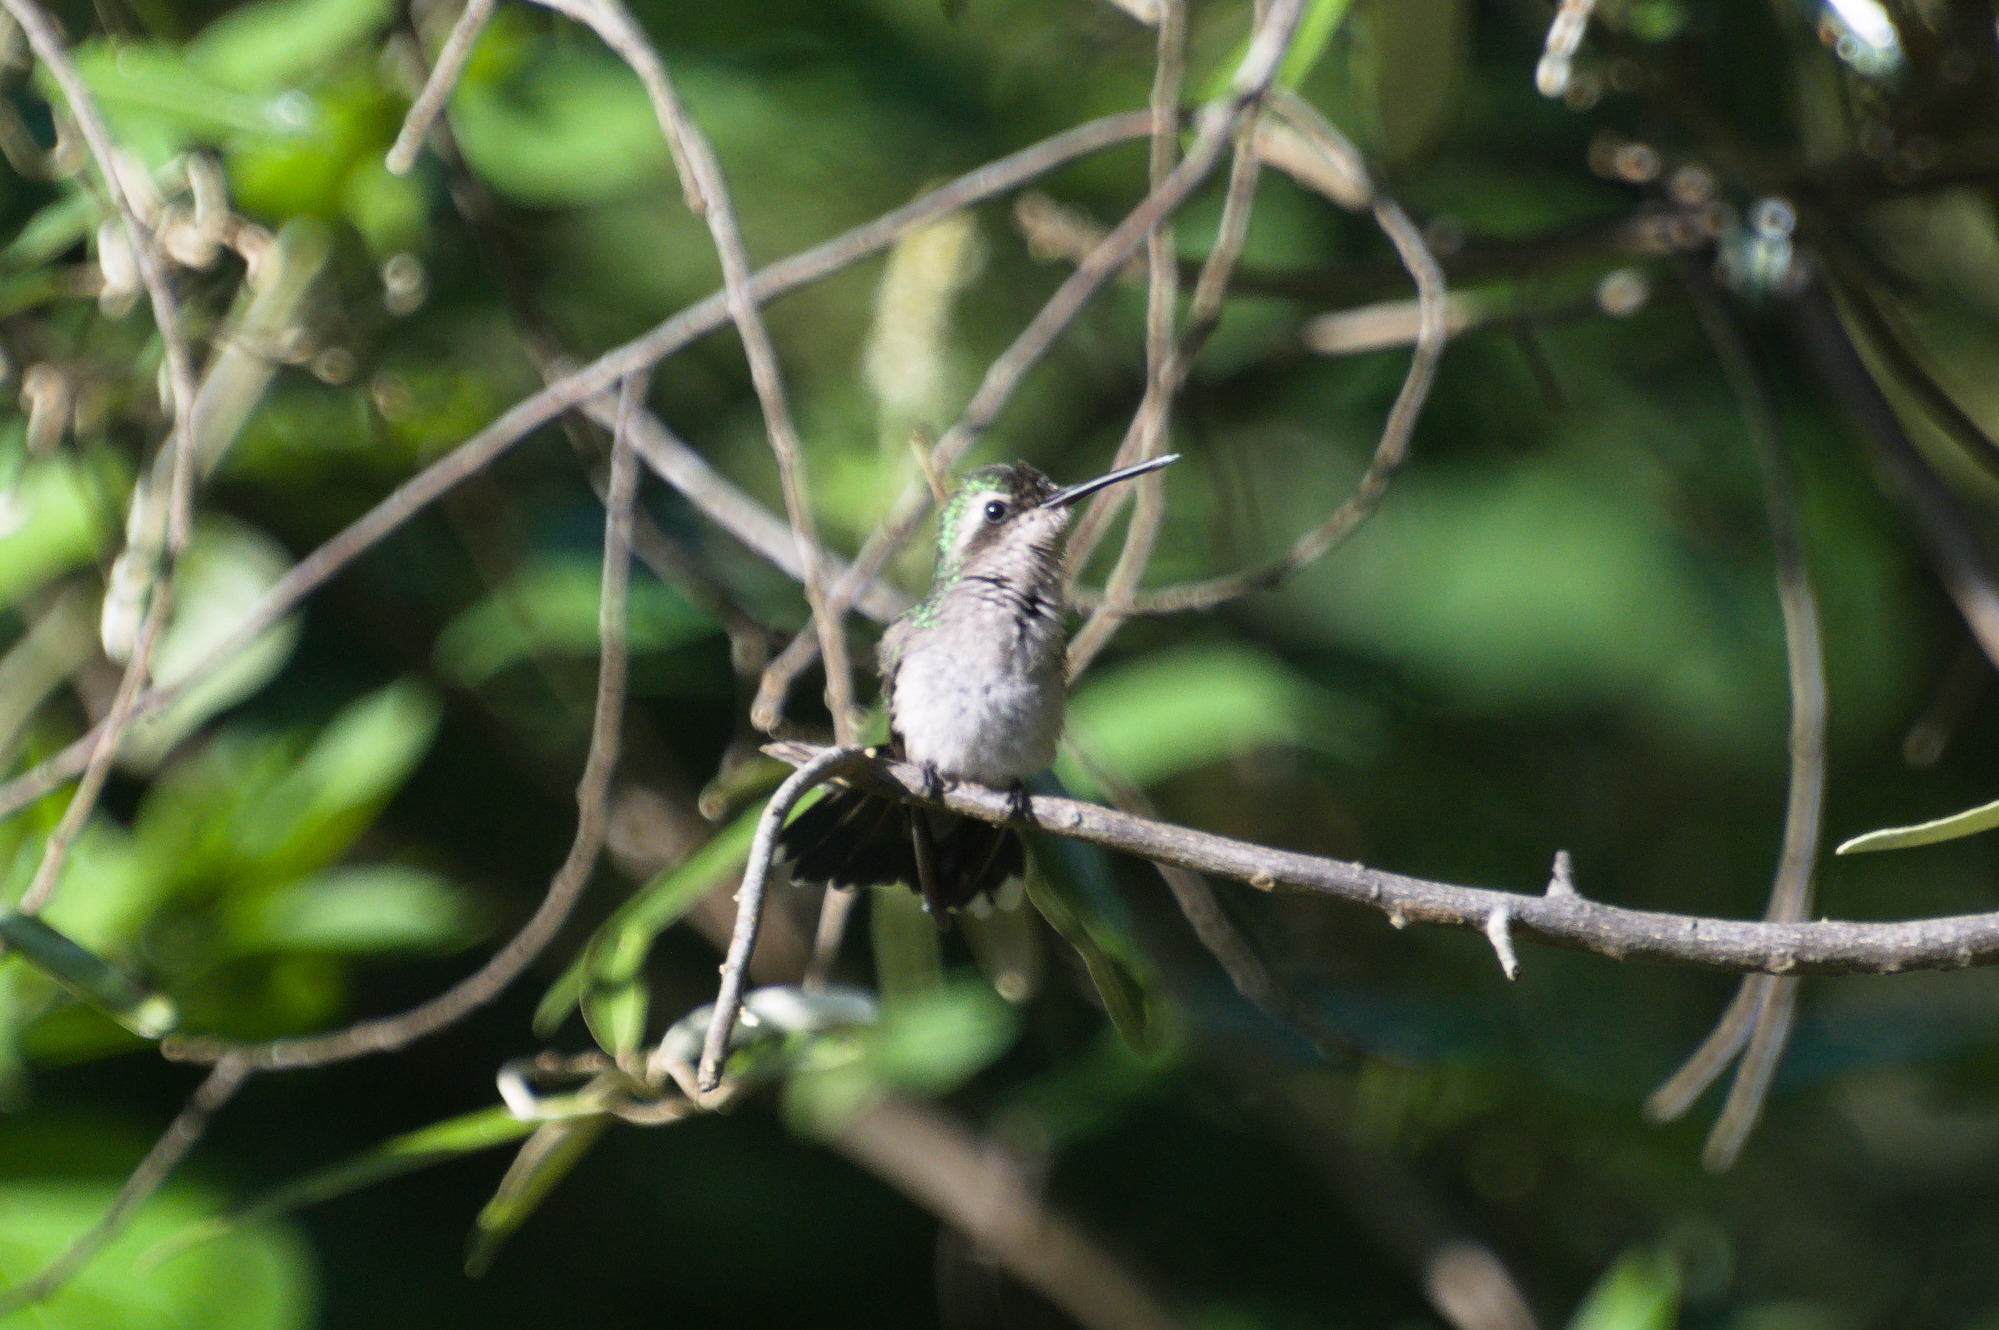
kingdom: Animalia
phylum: Chordata
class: Aves
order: Apodiformes
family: Trochilidae
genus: Chlorostilbon
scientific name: Chlorostilbon gibsoni
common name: Red-billed emerald
